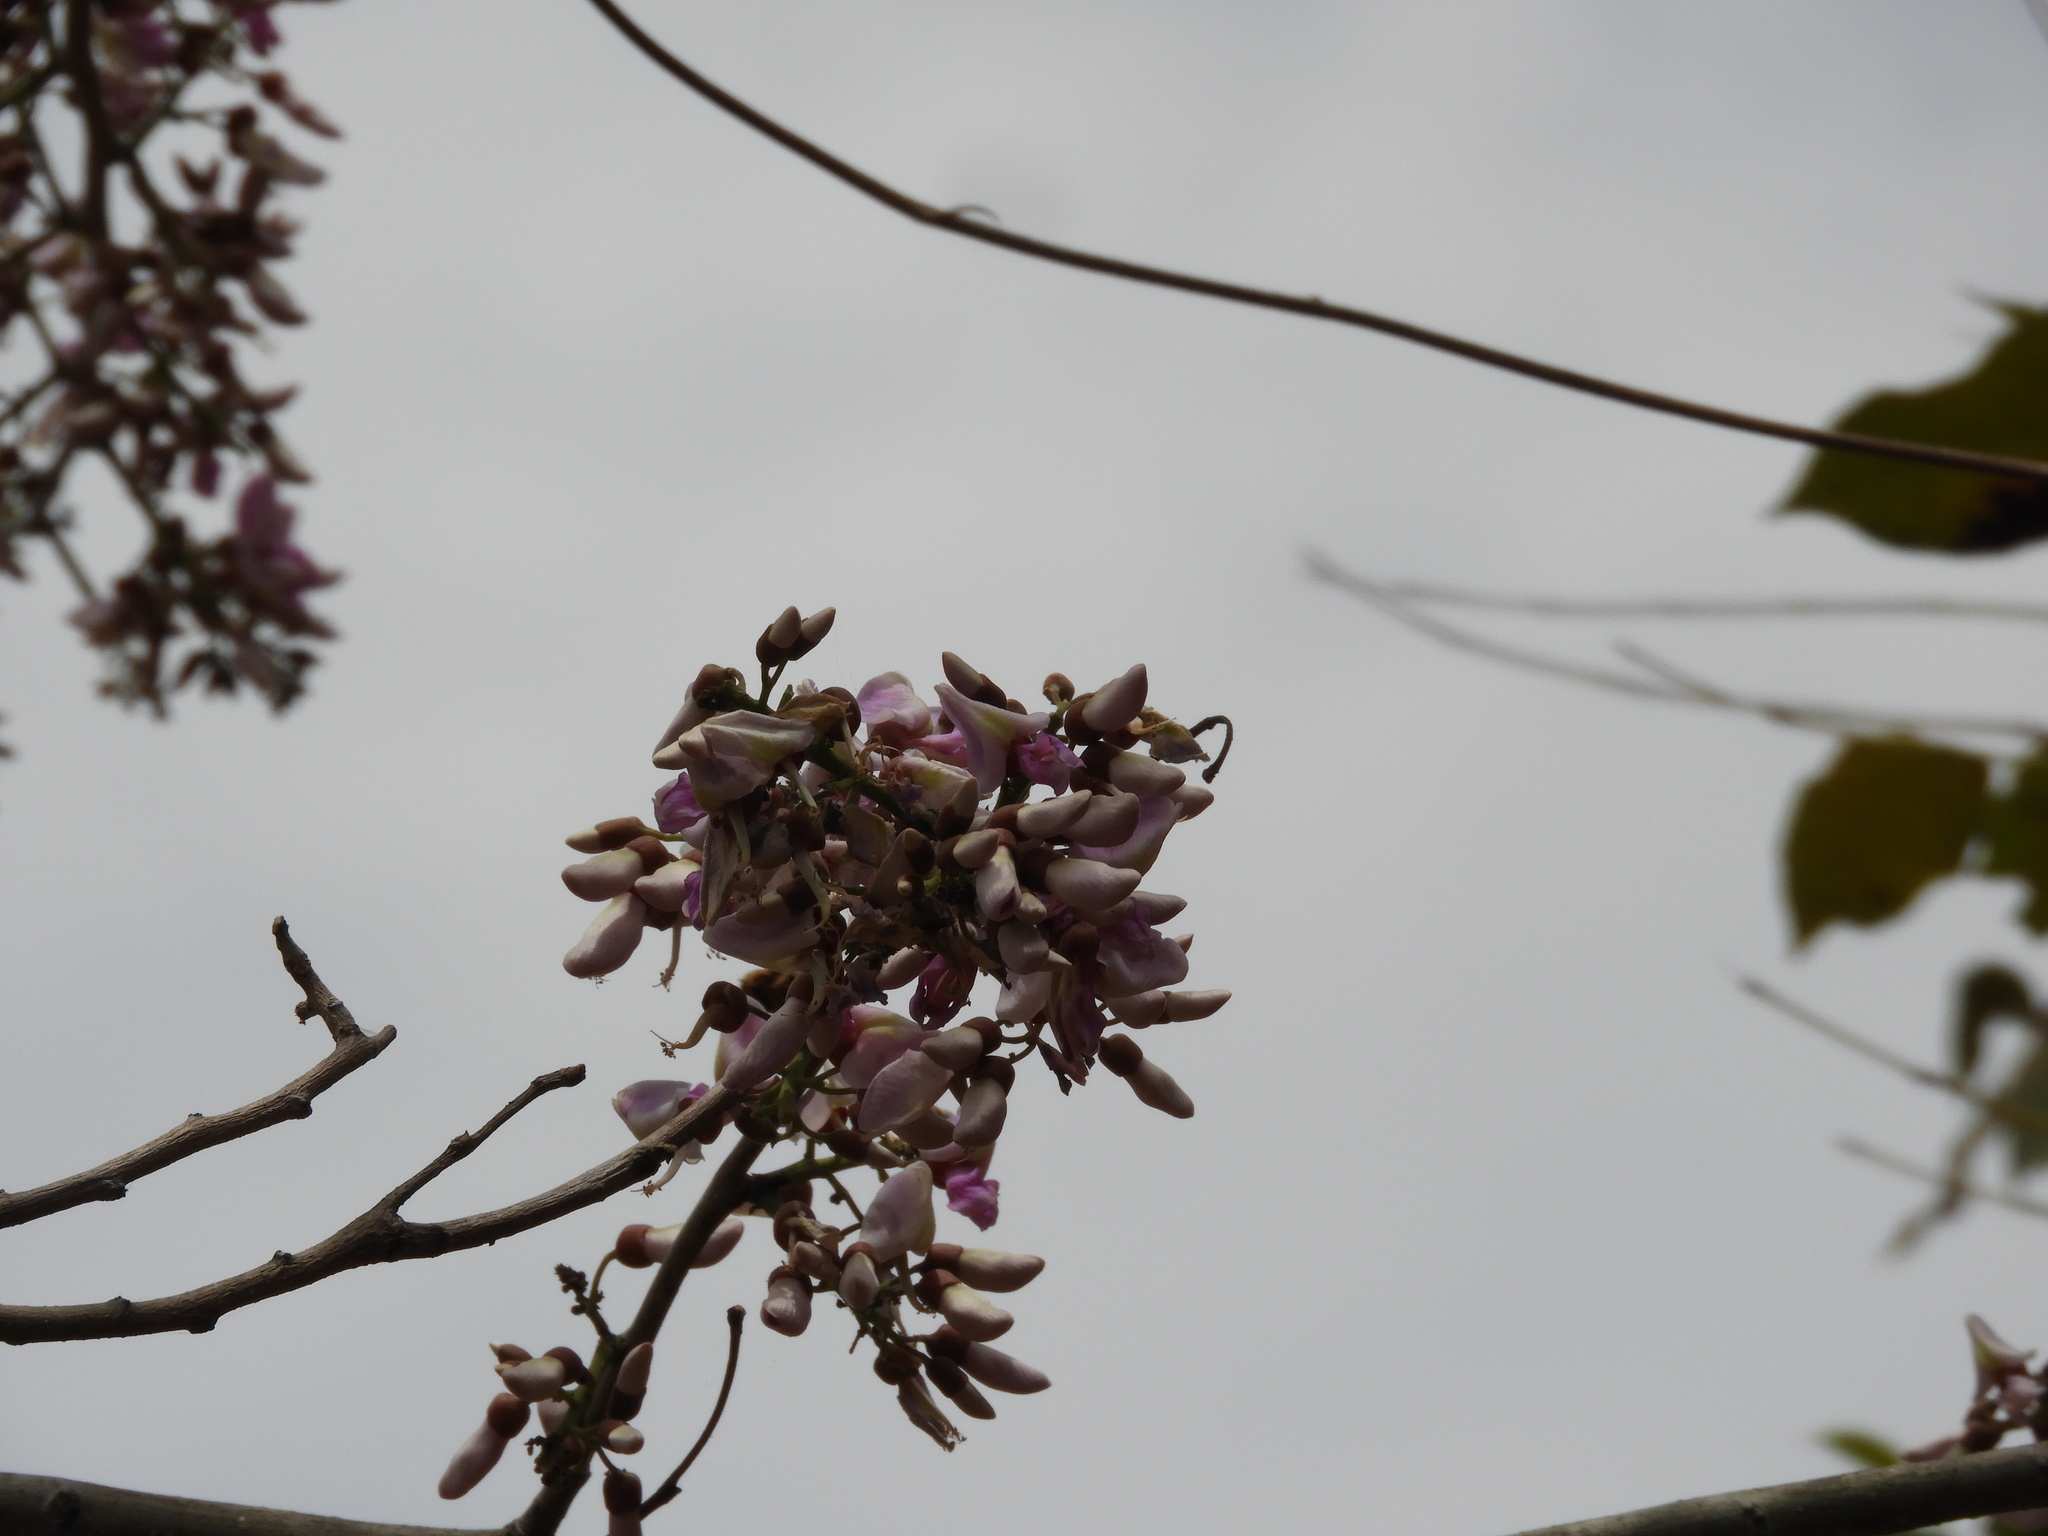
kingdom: Plantae
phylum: Tracheophyta
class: Magnoliopsida
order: Fabales
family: Fabaceae
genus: Gliricidia
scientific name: Gliricidia sepium
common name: Quickstick
